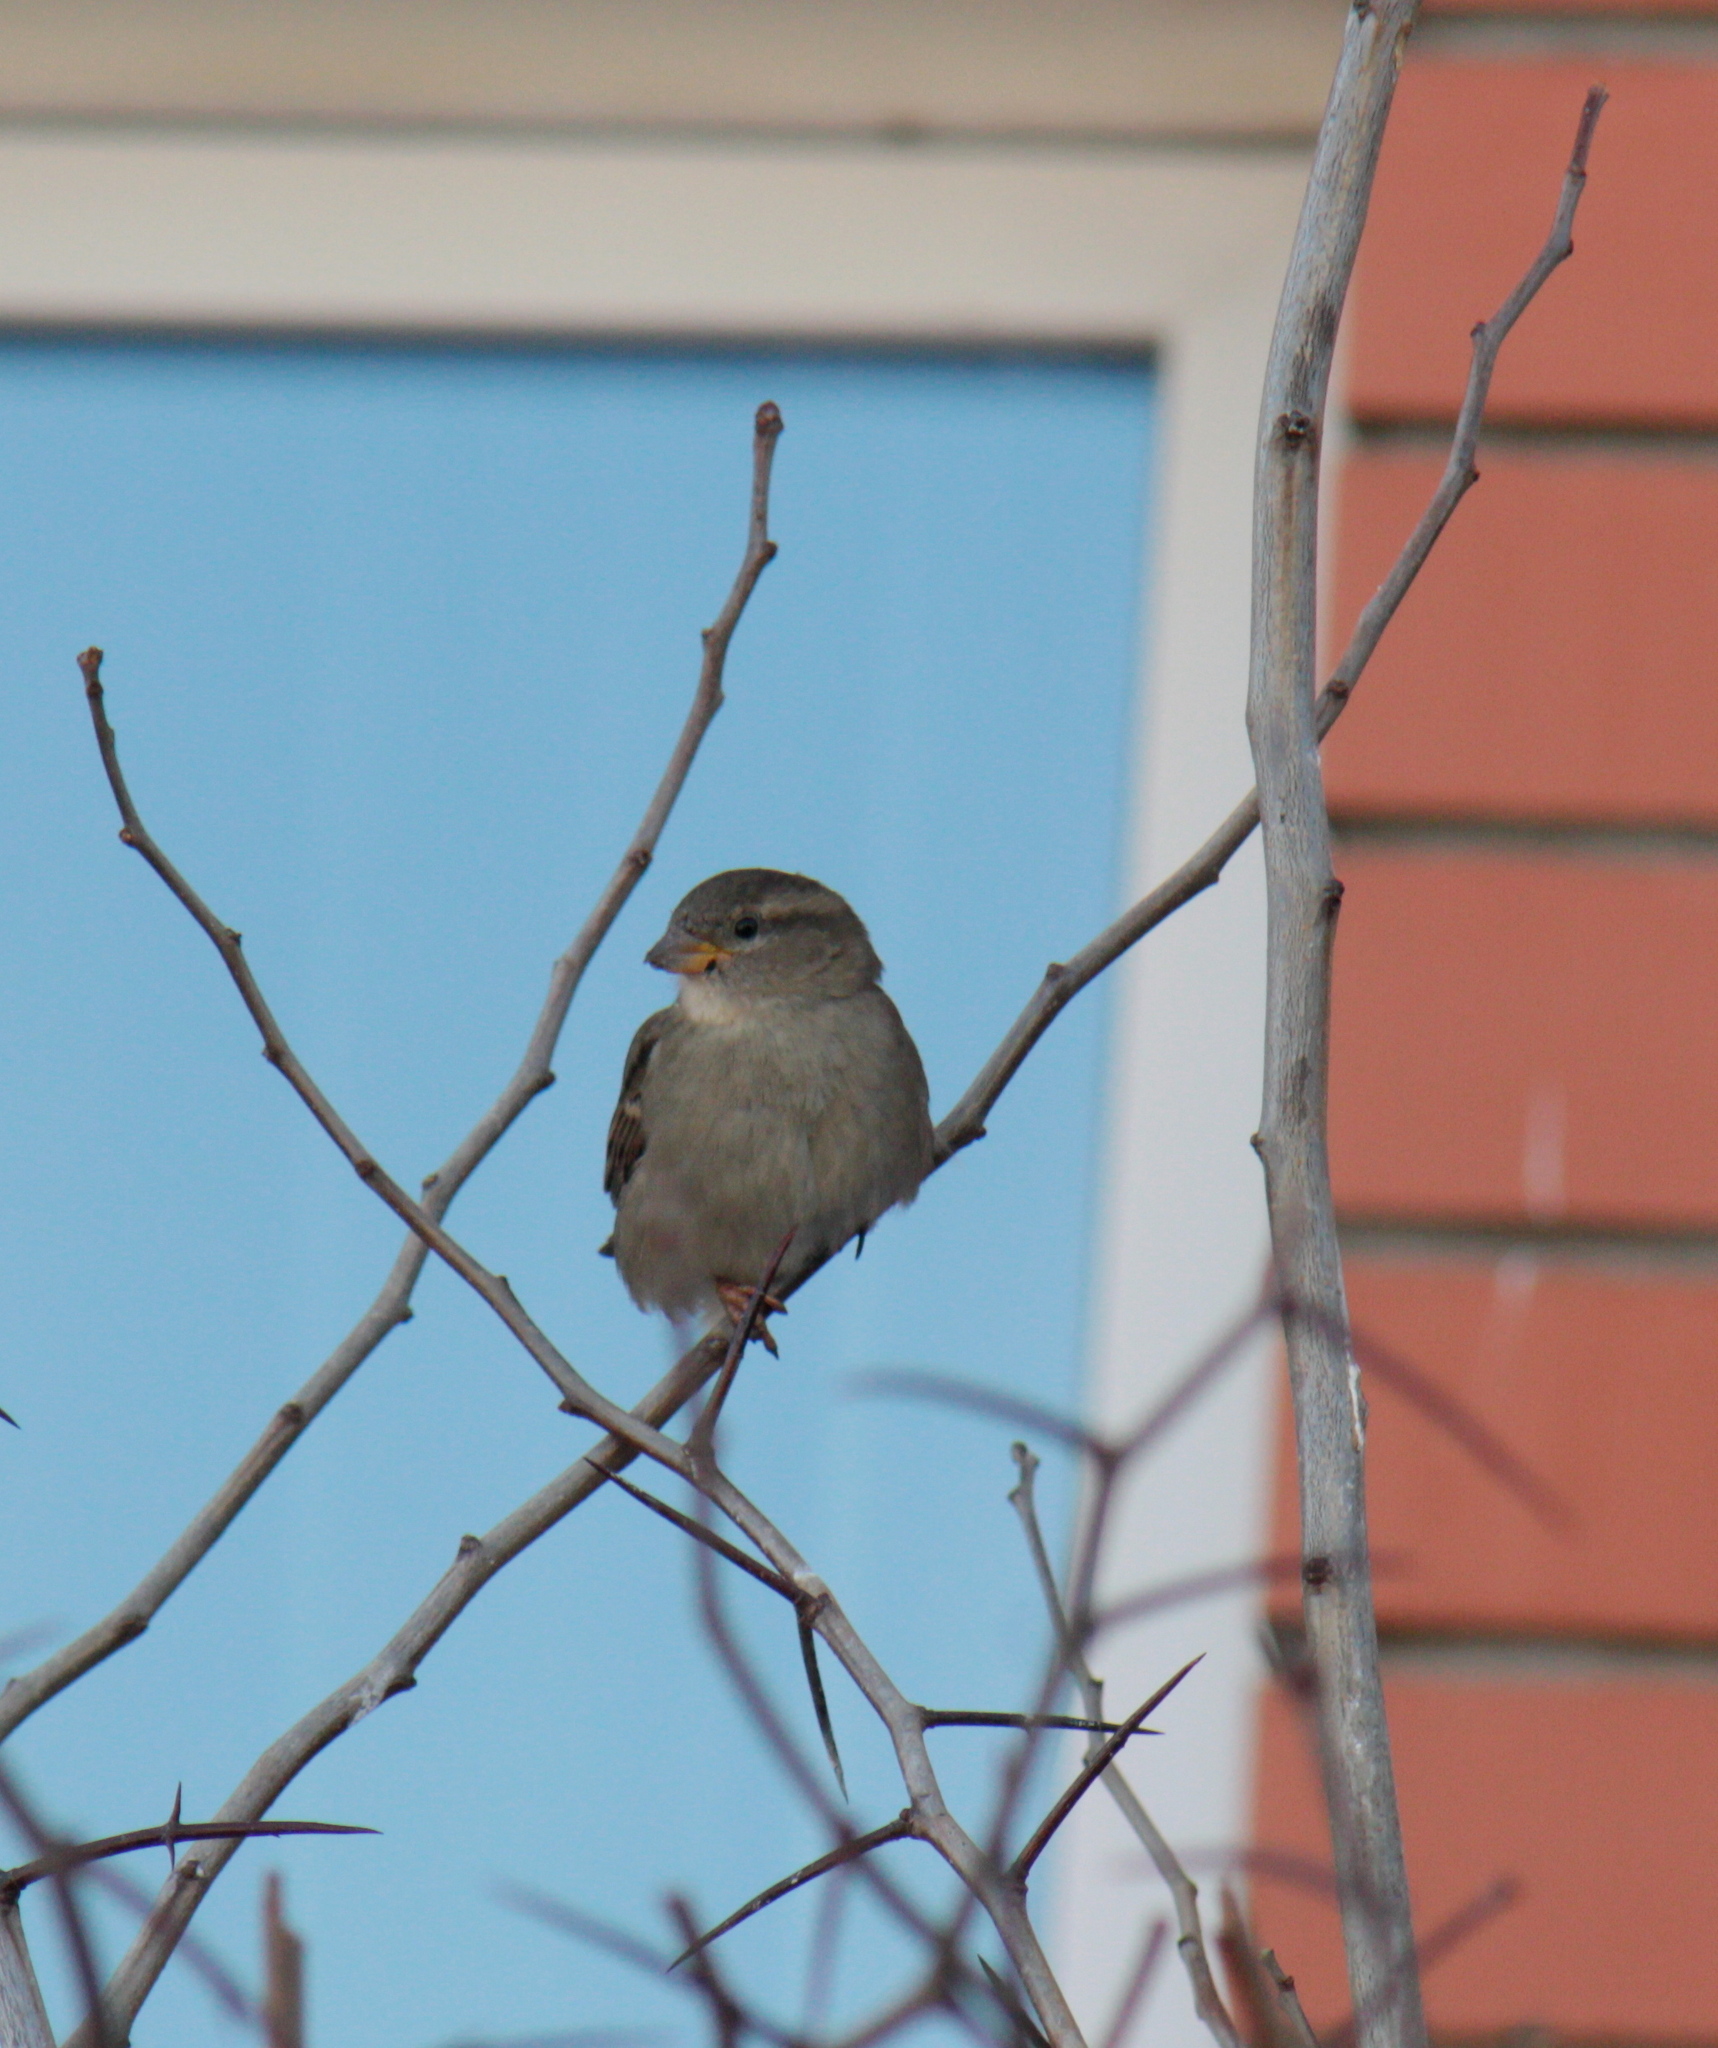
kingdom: Animalia
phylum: Chordata
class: Aves
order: Passeriformes
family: Passeridae
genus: Passer
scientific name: Passer domesticus
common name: House sparrow
